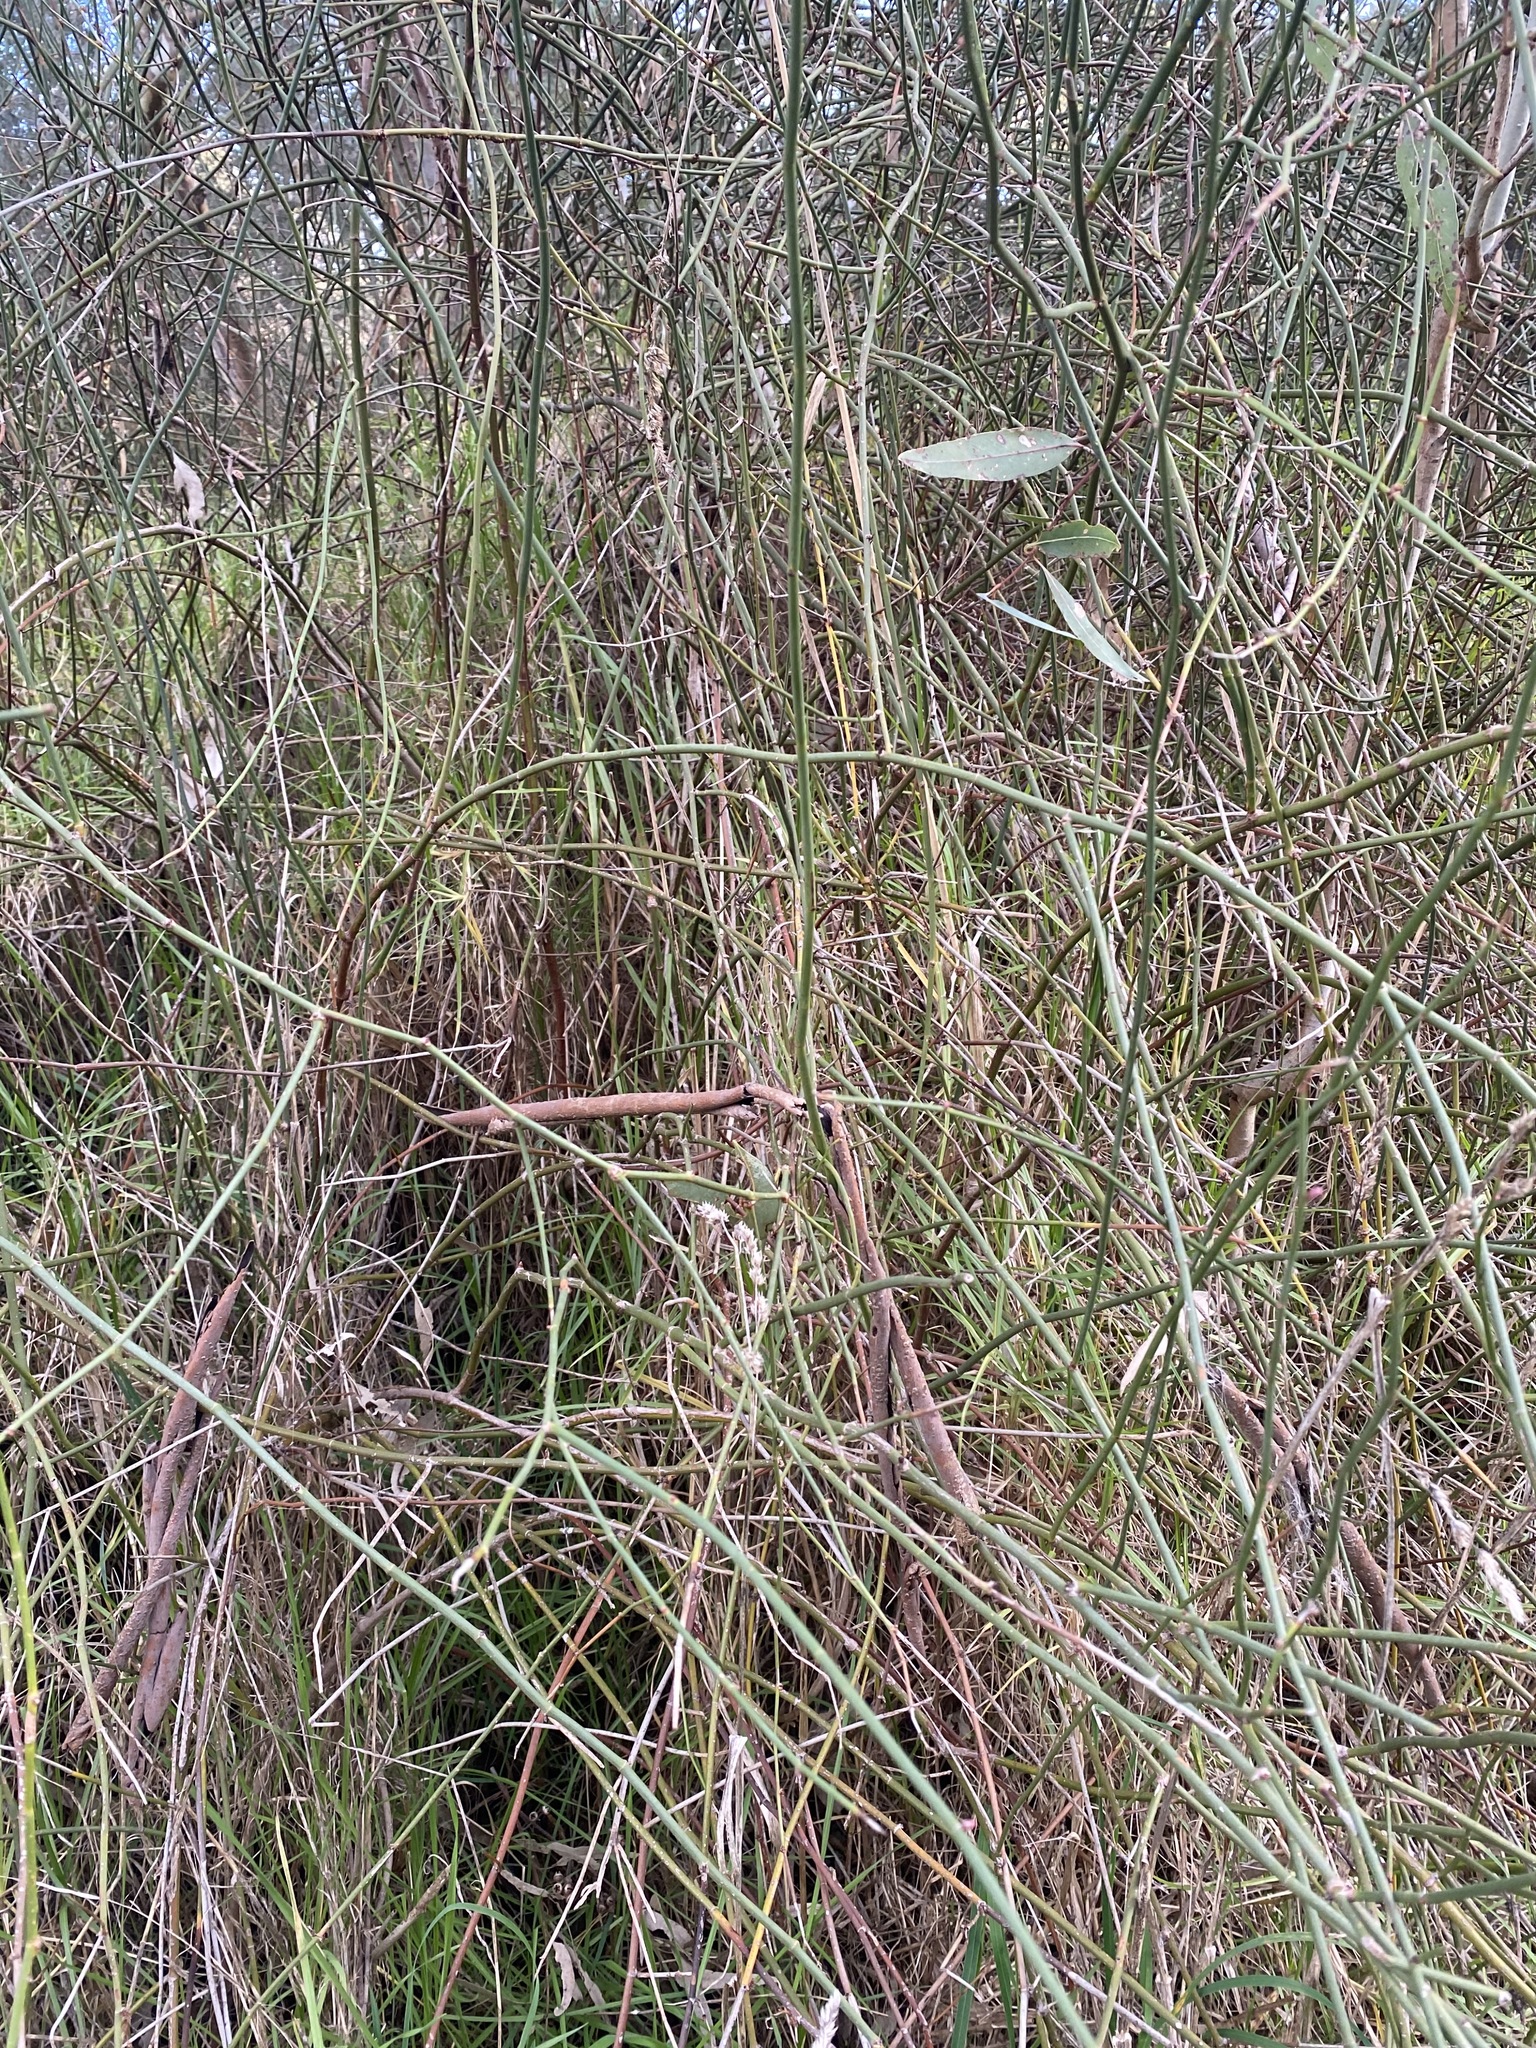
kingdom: Plantae
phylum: Tracheophyta
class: Magnoliopsida
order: Caryophyllales
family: Polygonaceae
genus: Duma
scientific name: Duma florulenta
